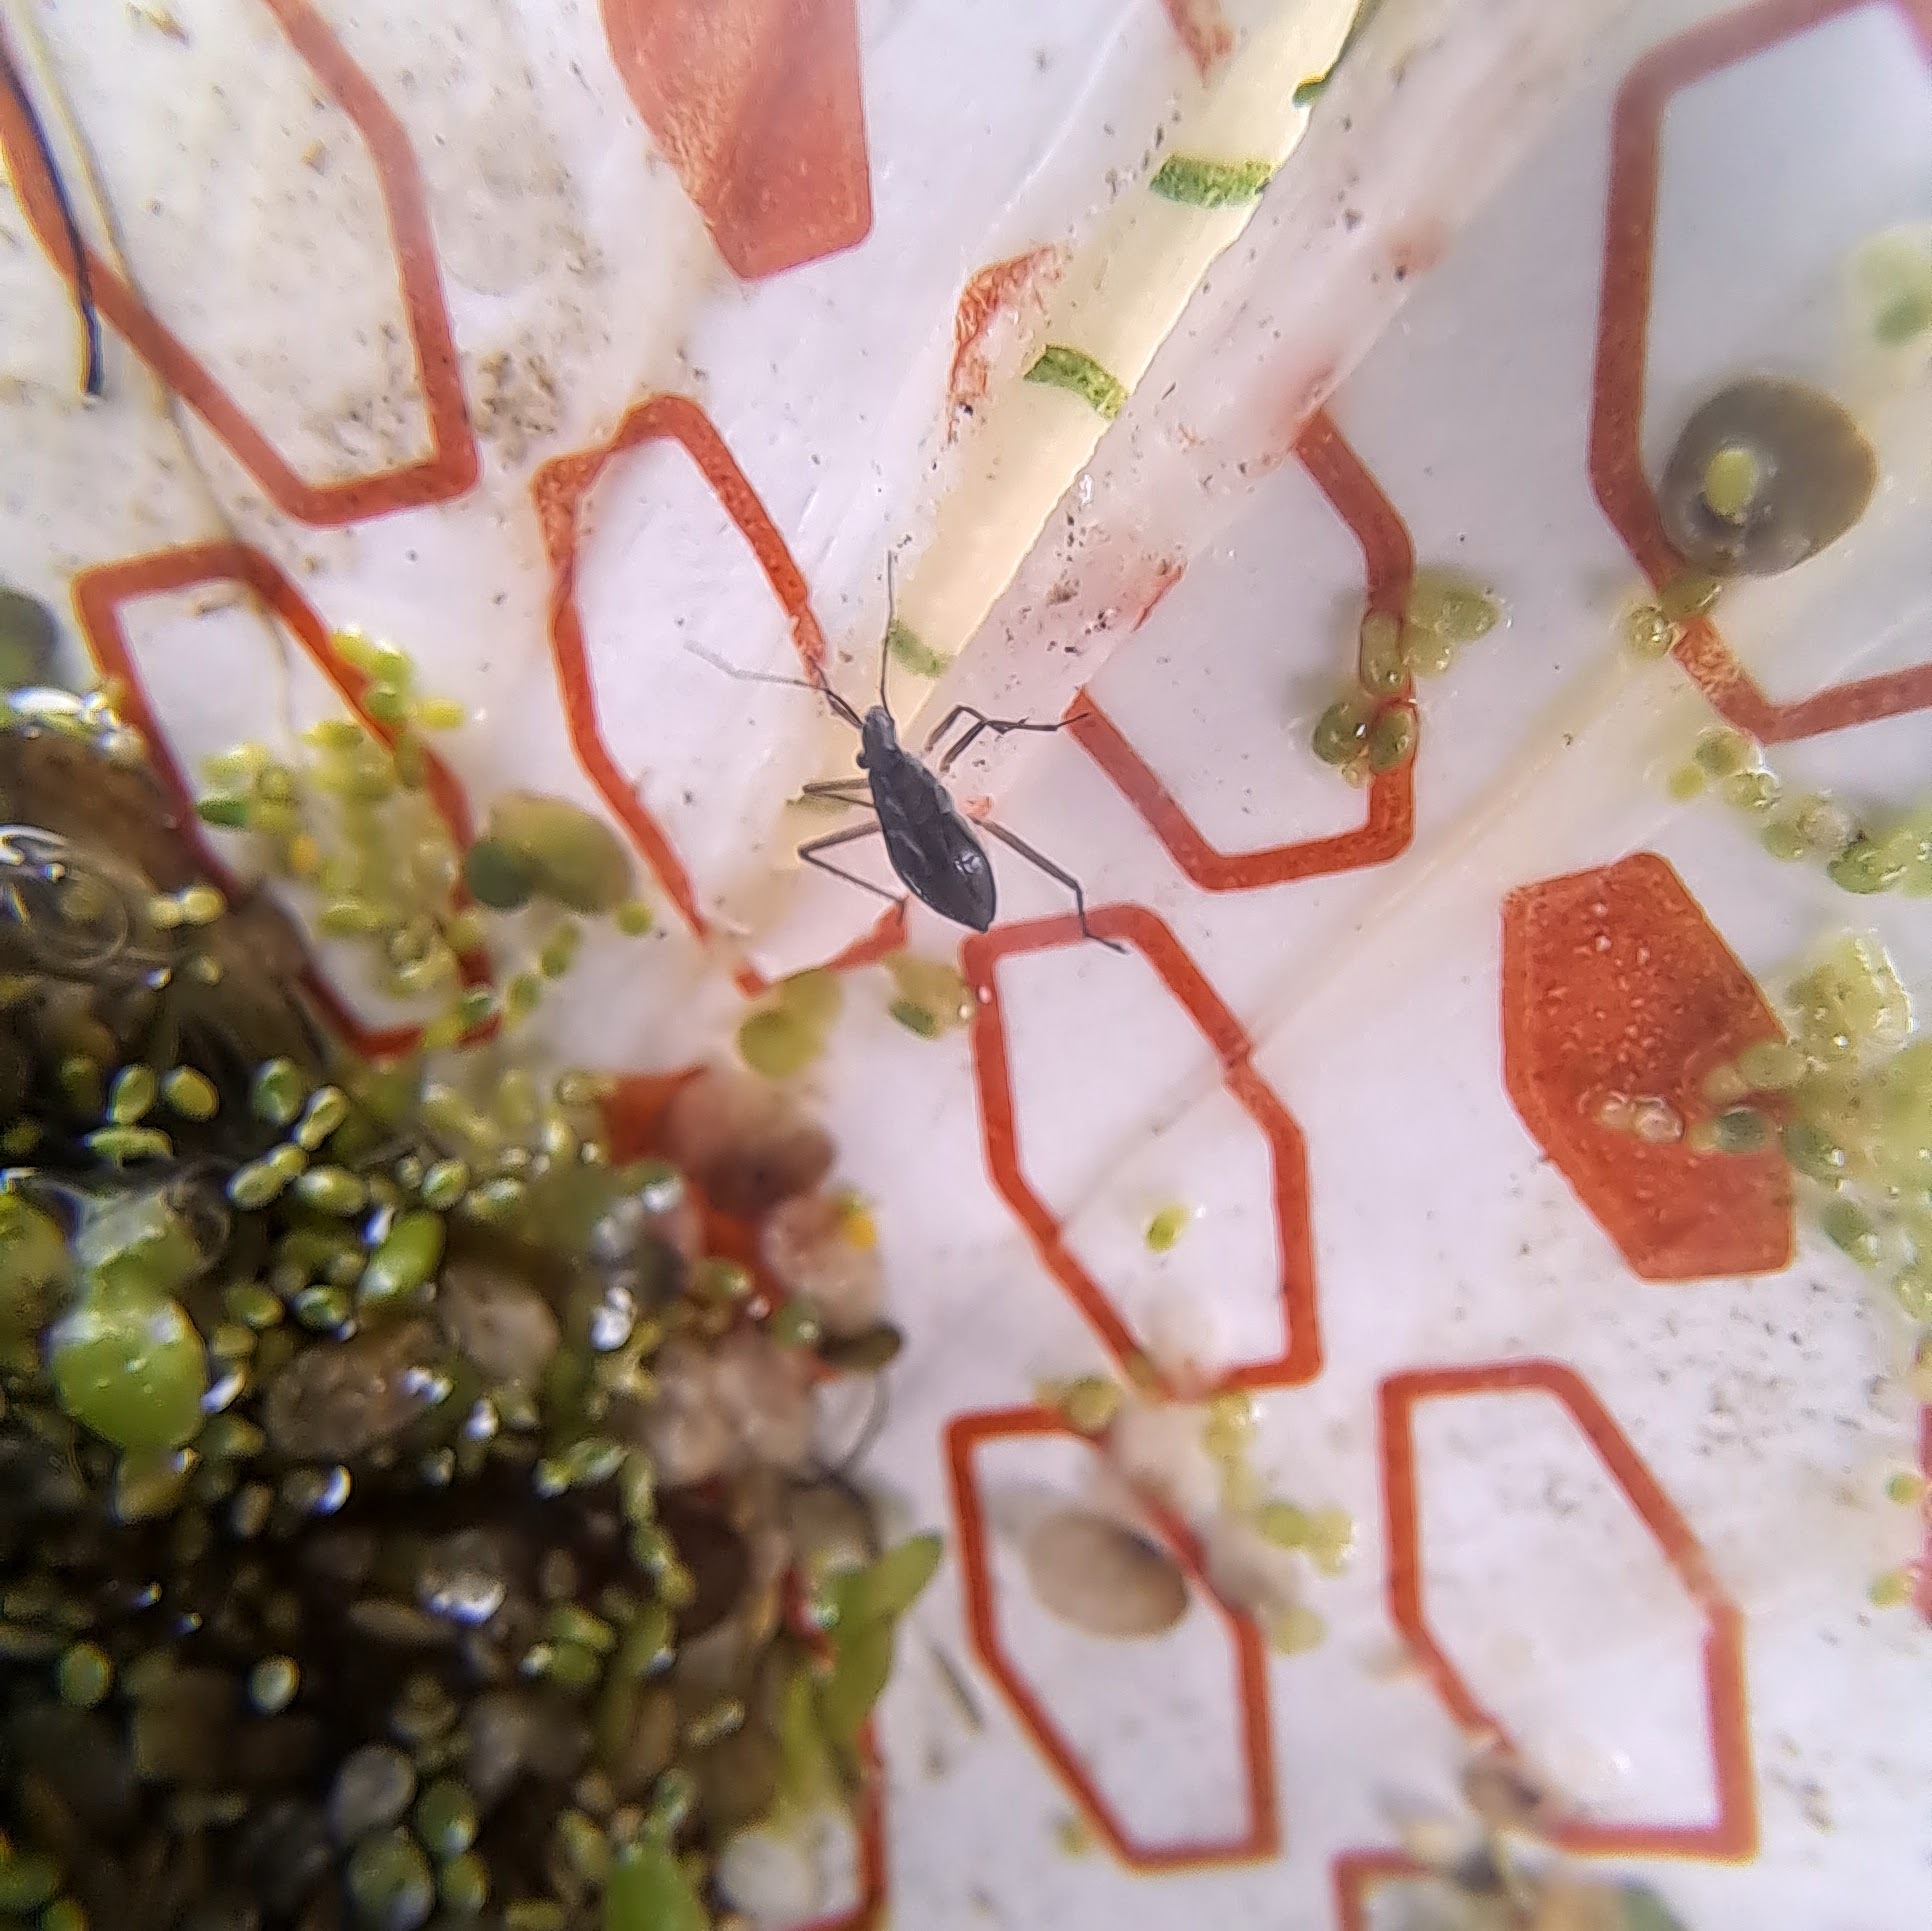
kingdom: Animalia
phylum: Arthropoda
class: Insecta
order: Hemiptera
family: Mesoveliidae
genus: Mesovelia
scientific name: Mesovelia
